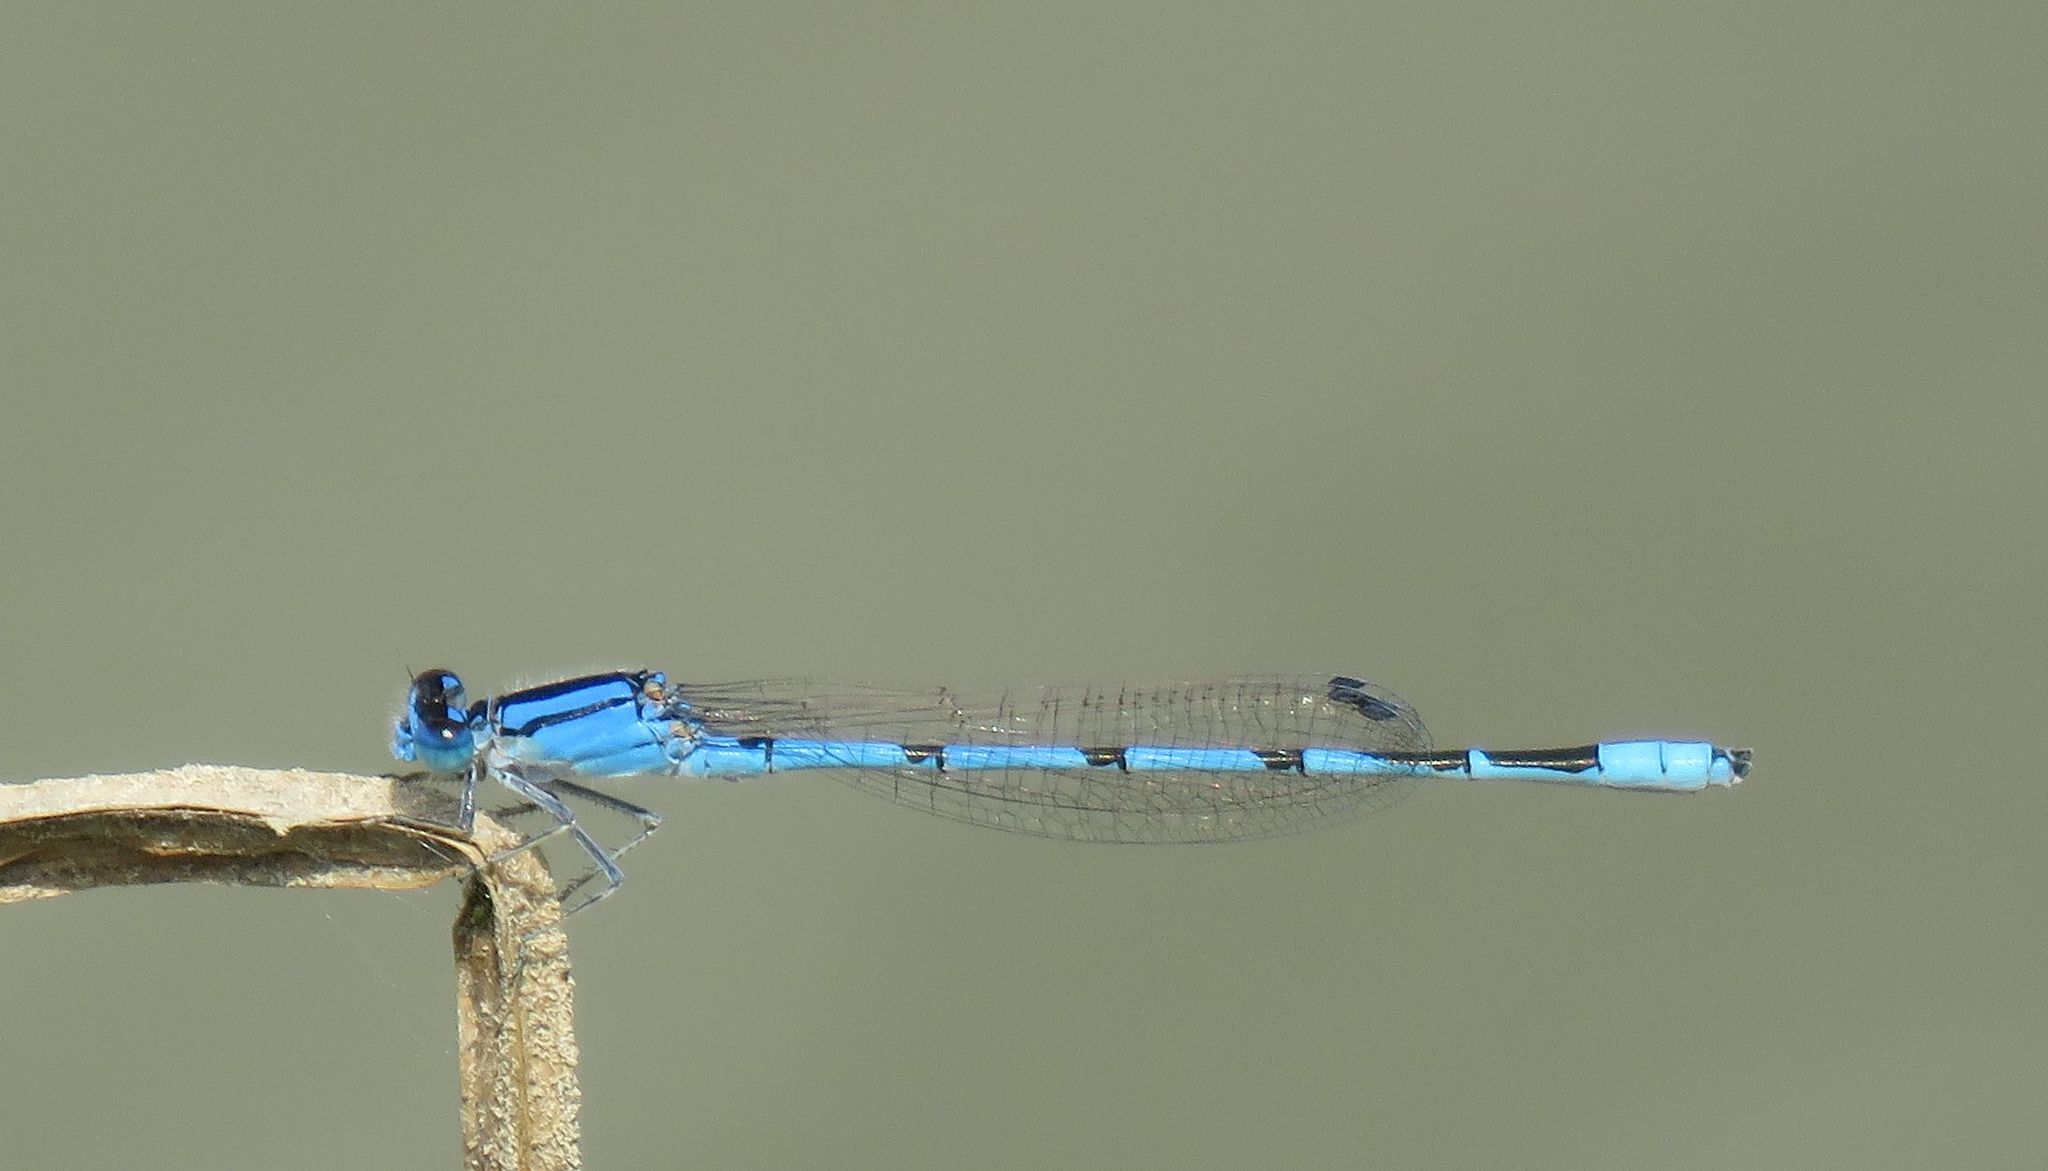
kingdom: Animalia
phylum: Arthropoda
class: Insecta
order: Odonata
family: Coenagrionidae
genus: Enallagma
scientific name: Enallagma civile
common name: Damselfly
